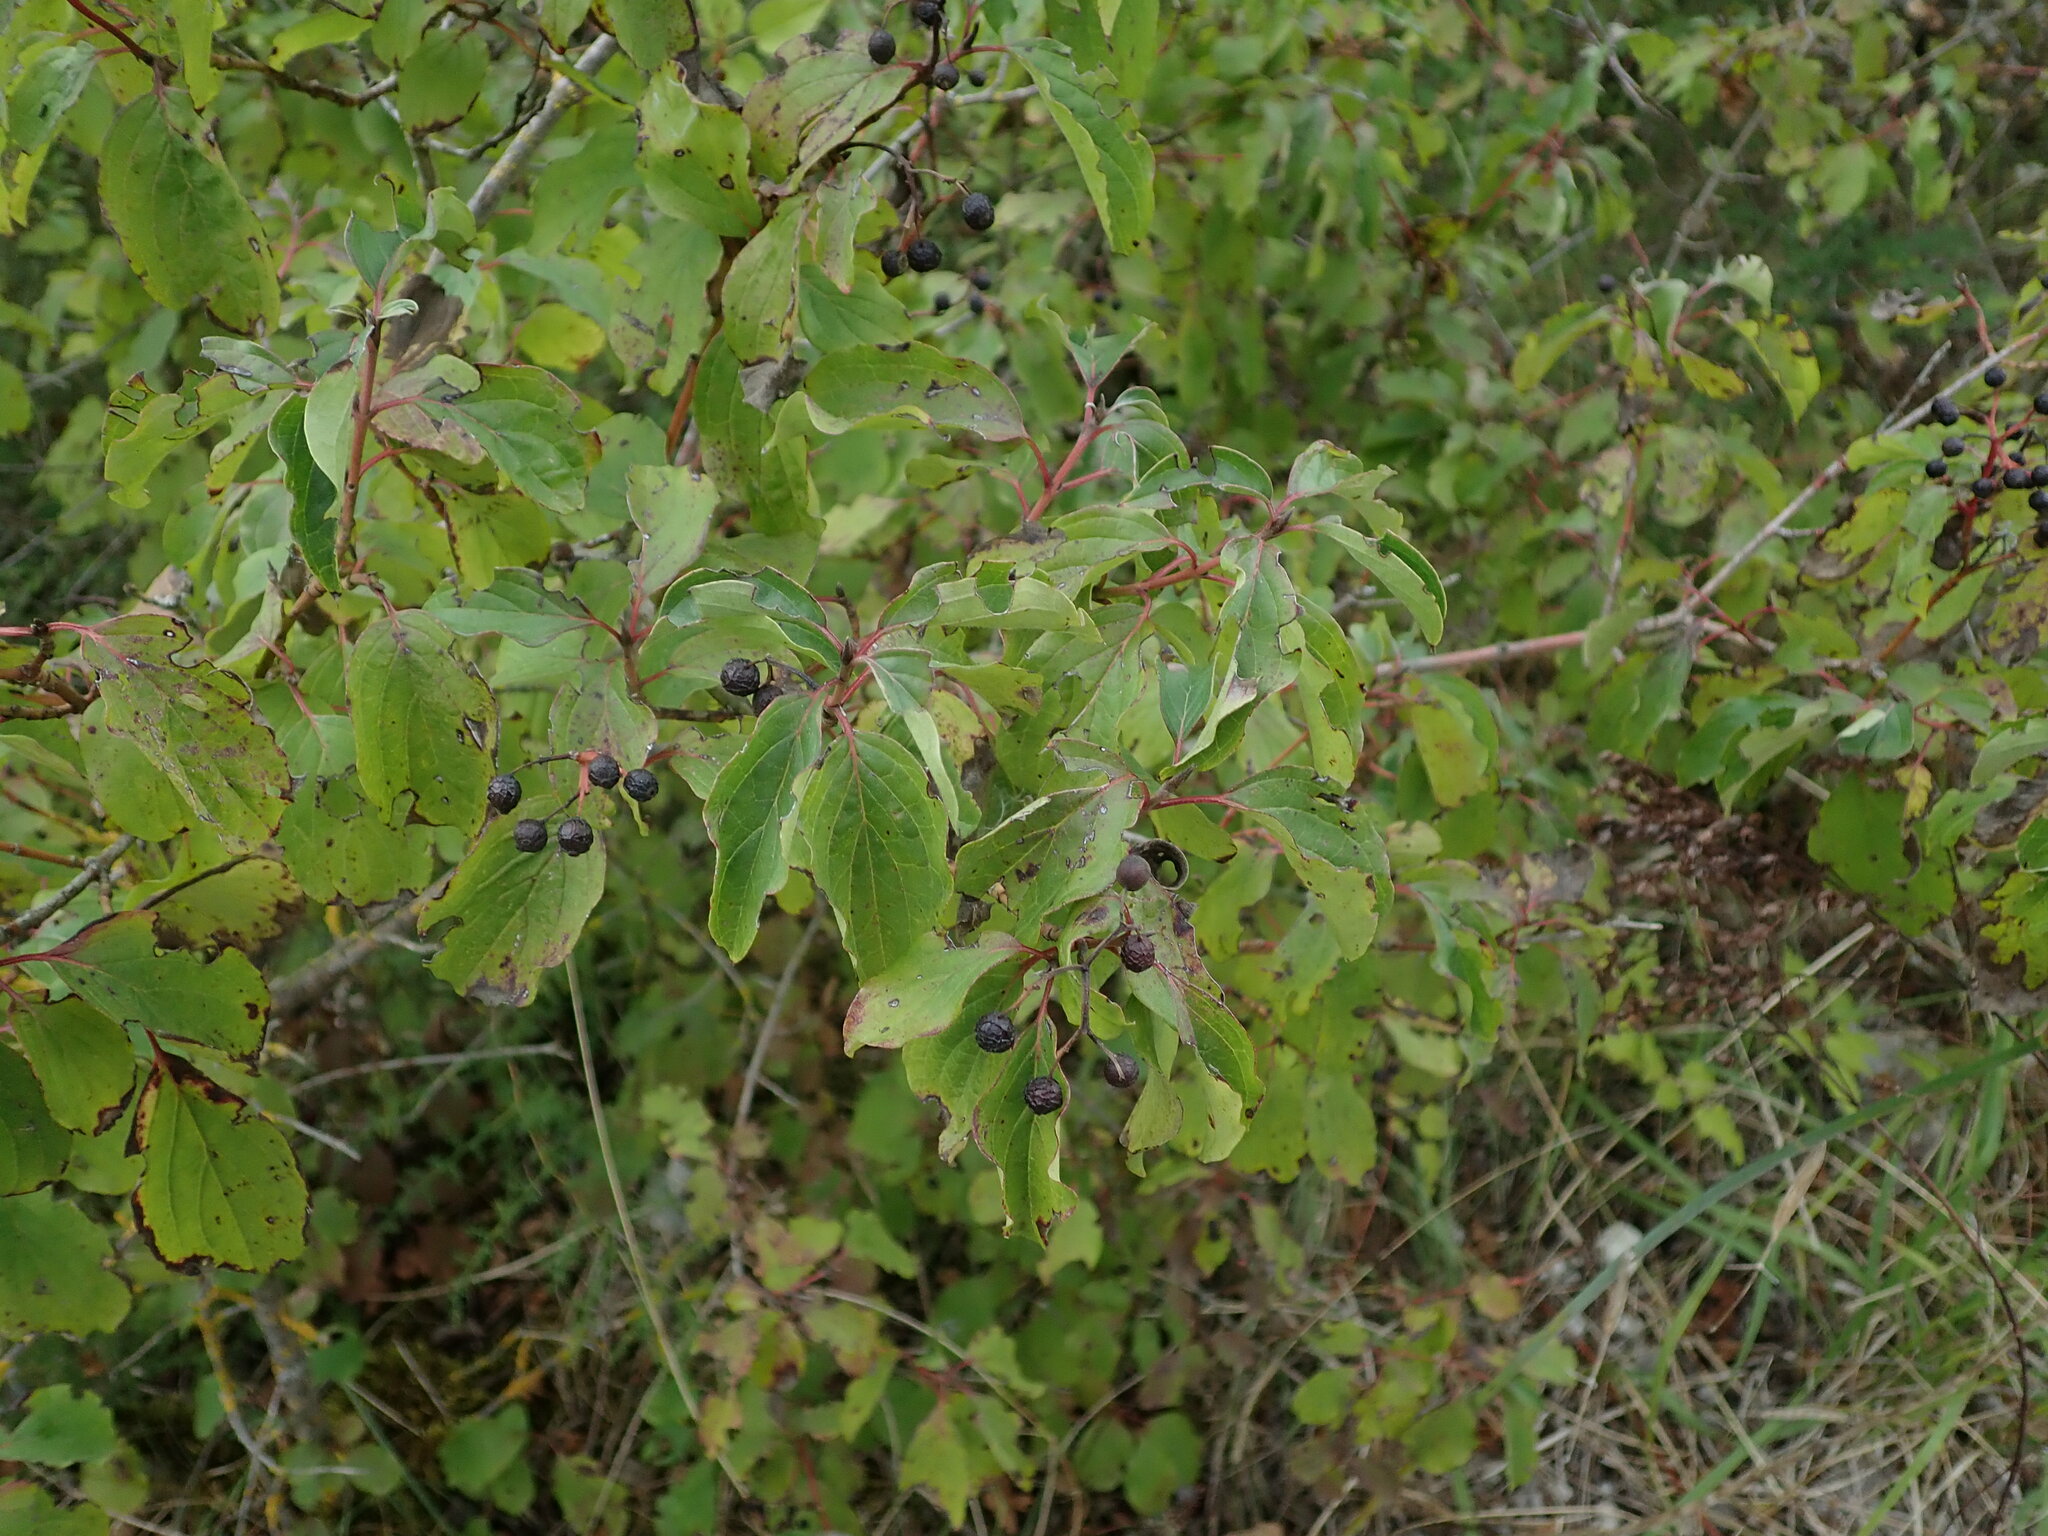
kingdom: Plantae
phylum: Tracheophyta
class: Magnoliopsida
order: Cornales
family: Cornaceae
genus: Cornus
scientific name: Cornus sanguinea
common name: Dogwood
